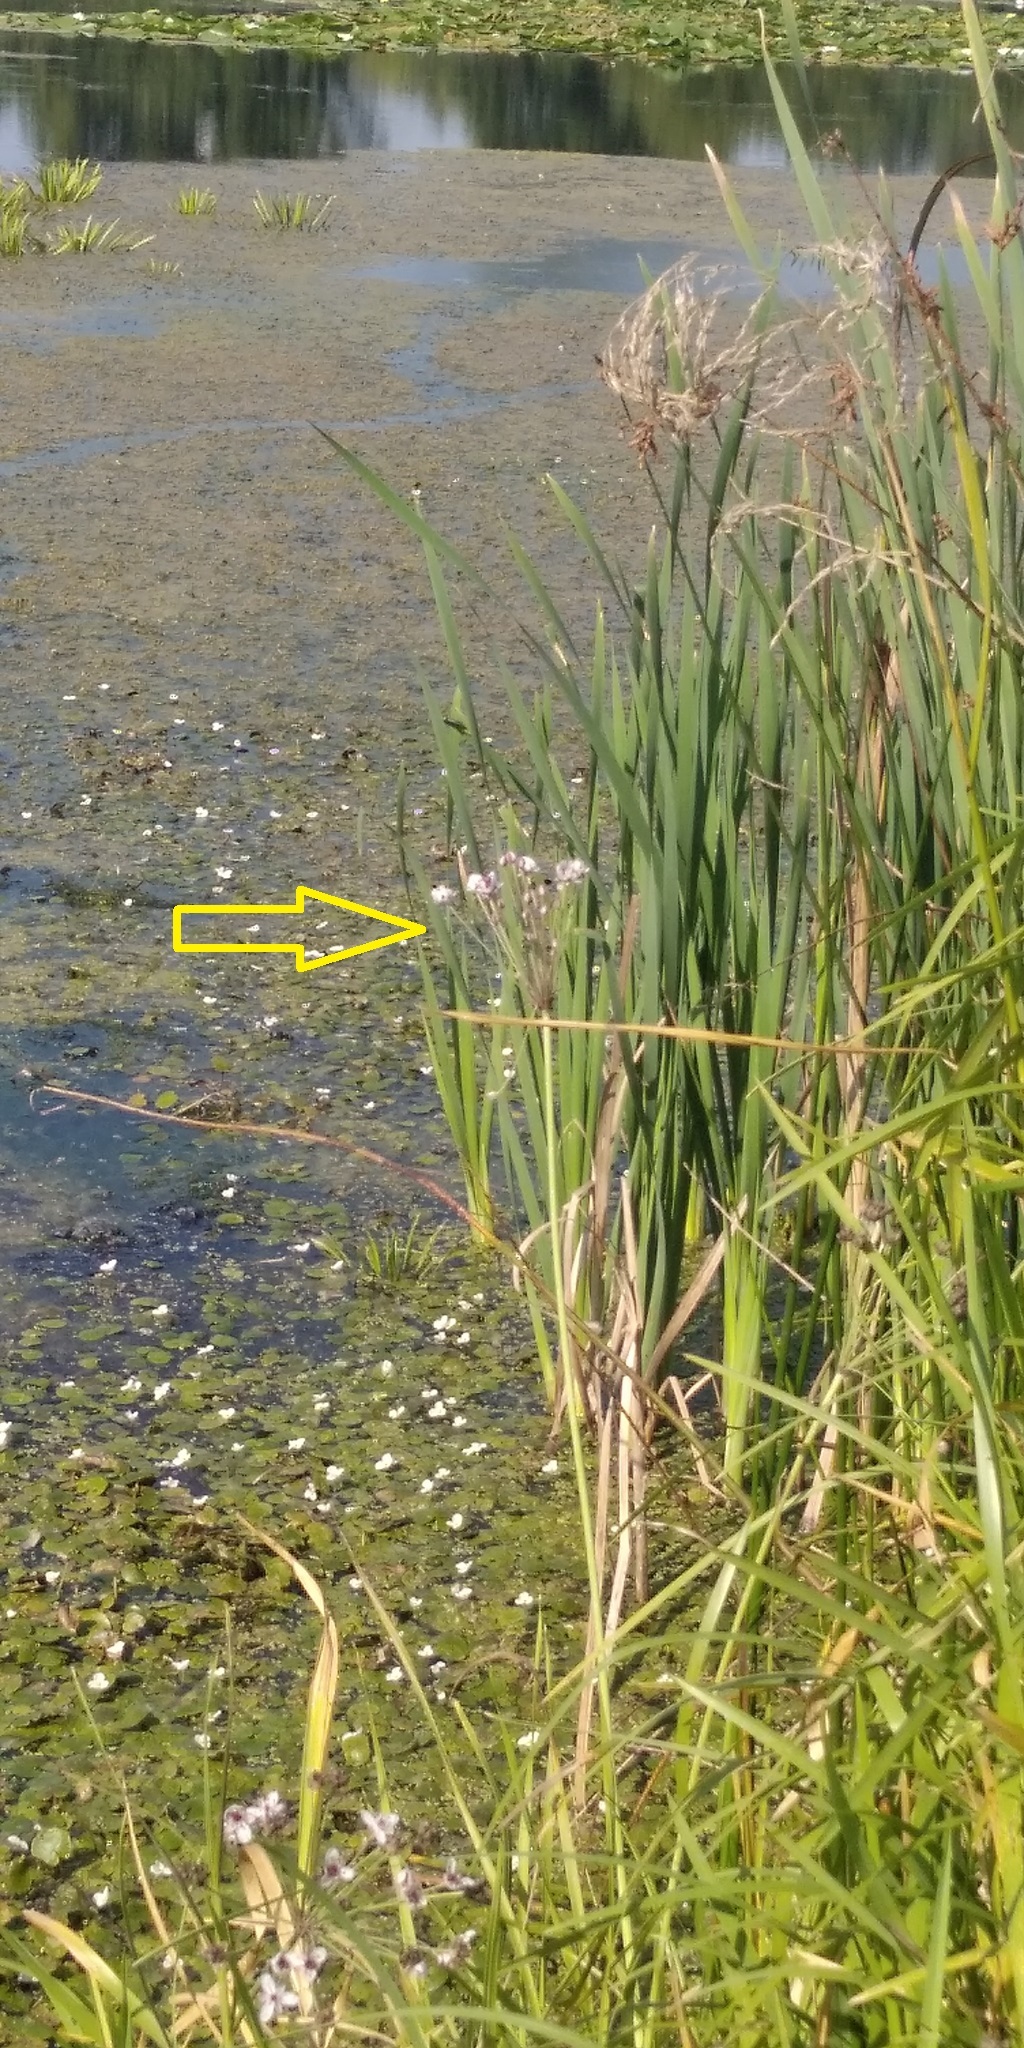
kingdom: Plantae
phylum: Tracheophyta
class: Liliopsida
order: Alismatales
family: Butomaceae
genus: Butomus
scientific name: Butomus umbellatus
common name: Flowering-rush
